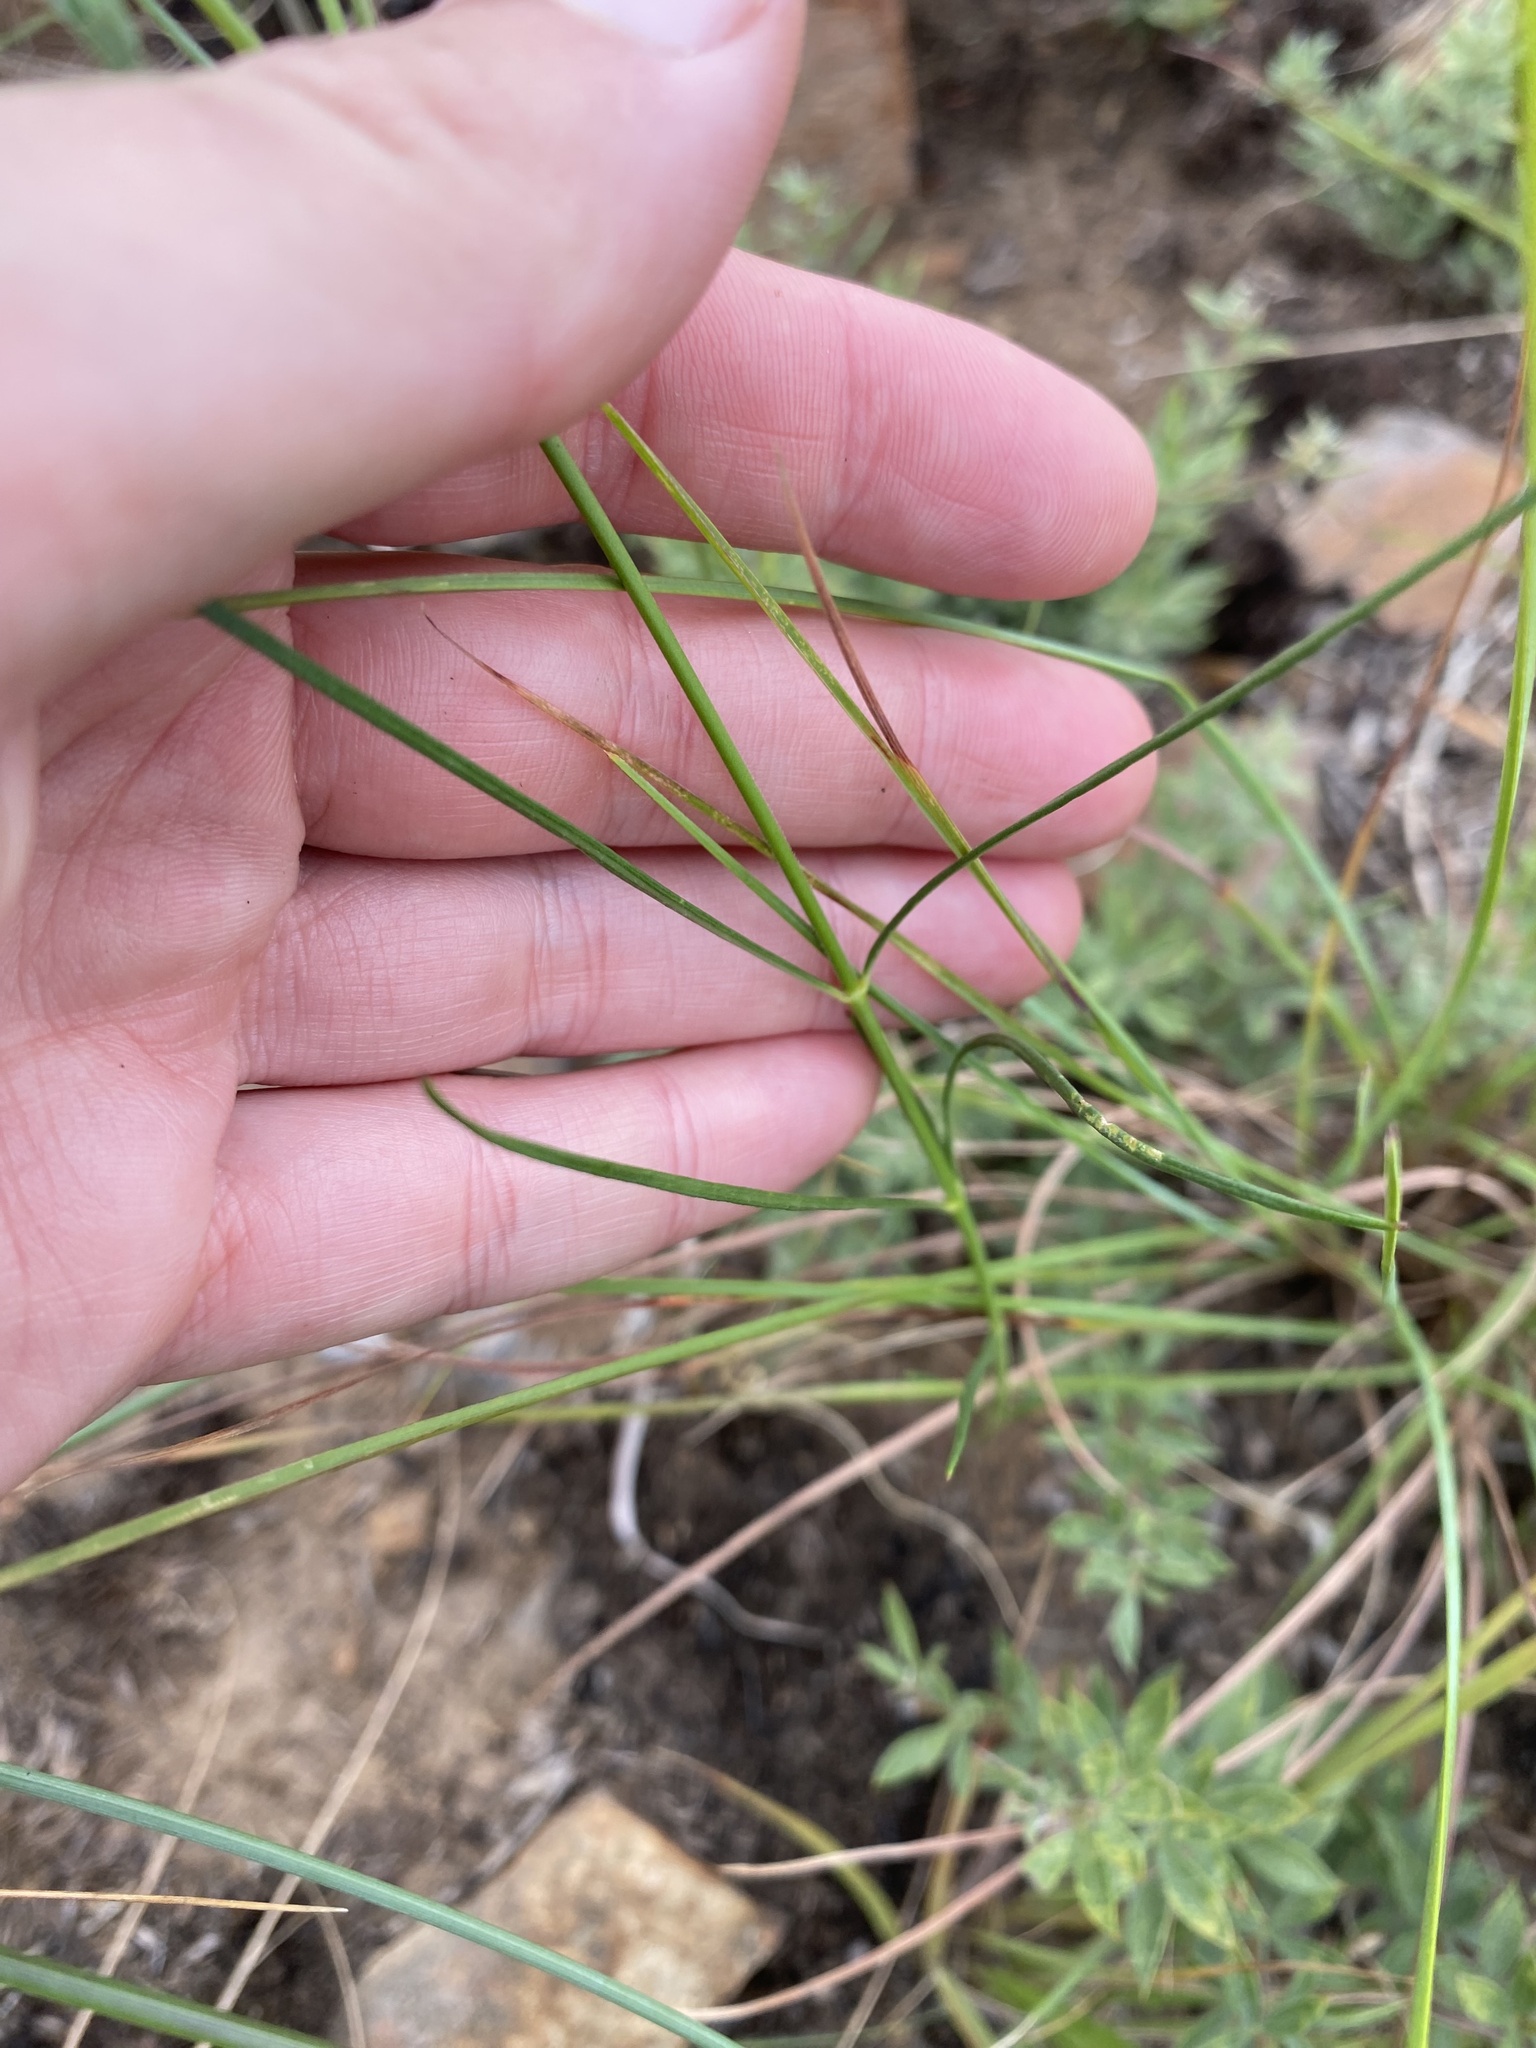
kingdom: Plantae
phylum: Tracheophyta
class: Magnoliopsida
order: Gentianales
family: Apocynaceae
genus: Asclepias
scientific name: Asclepias aurea
